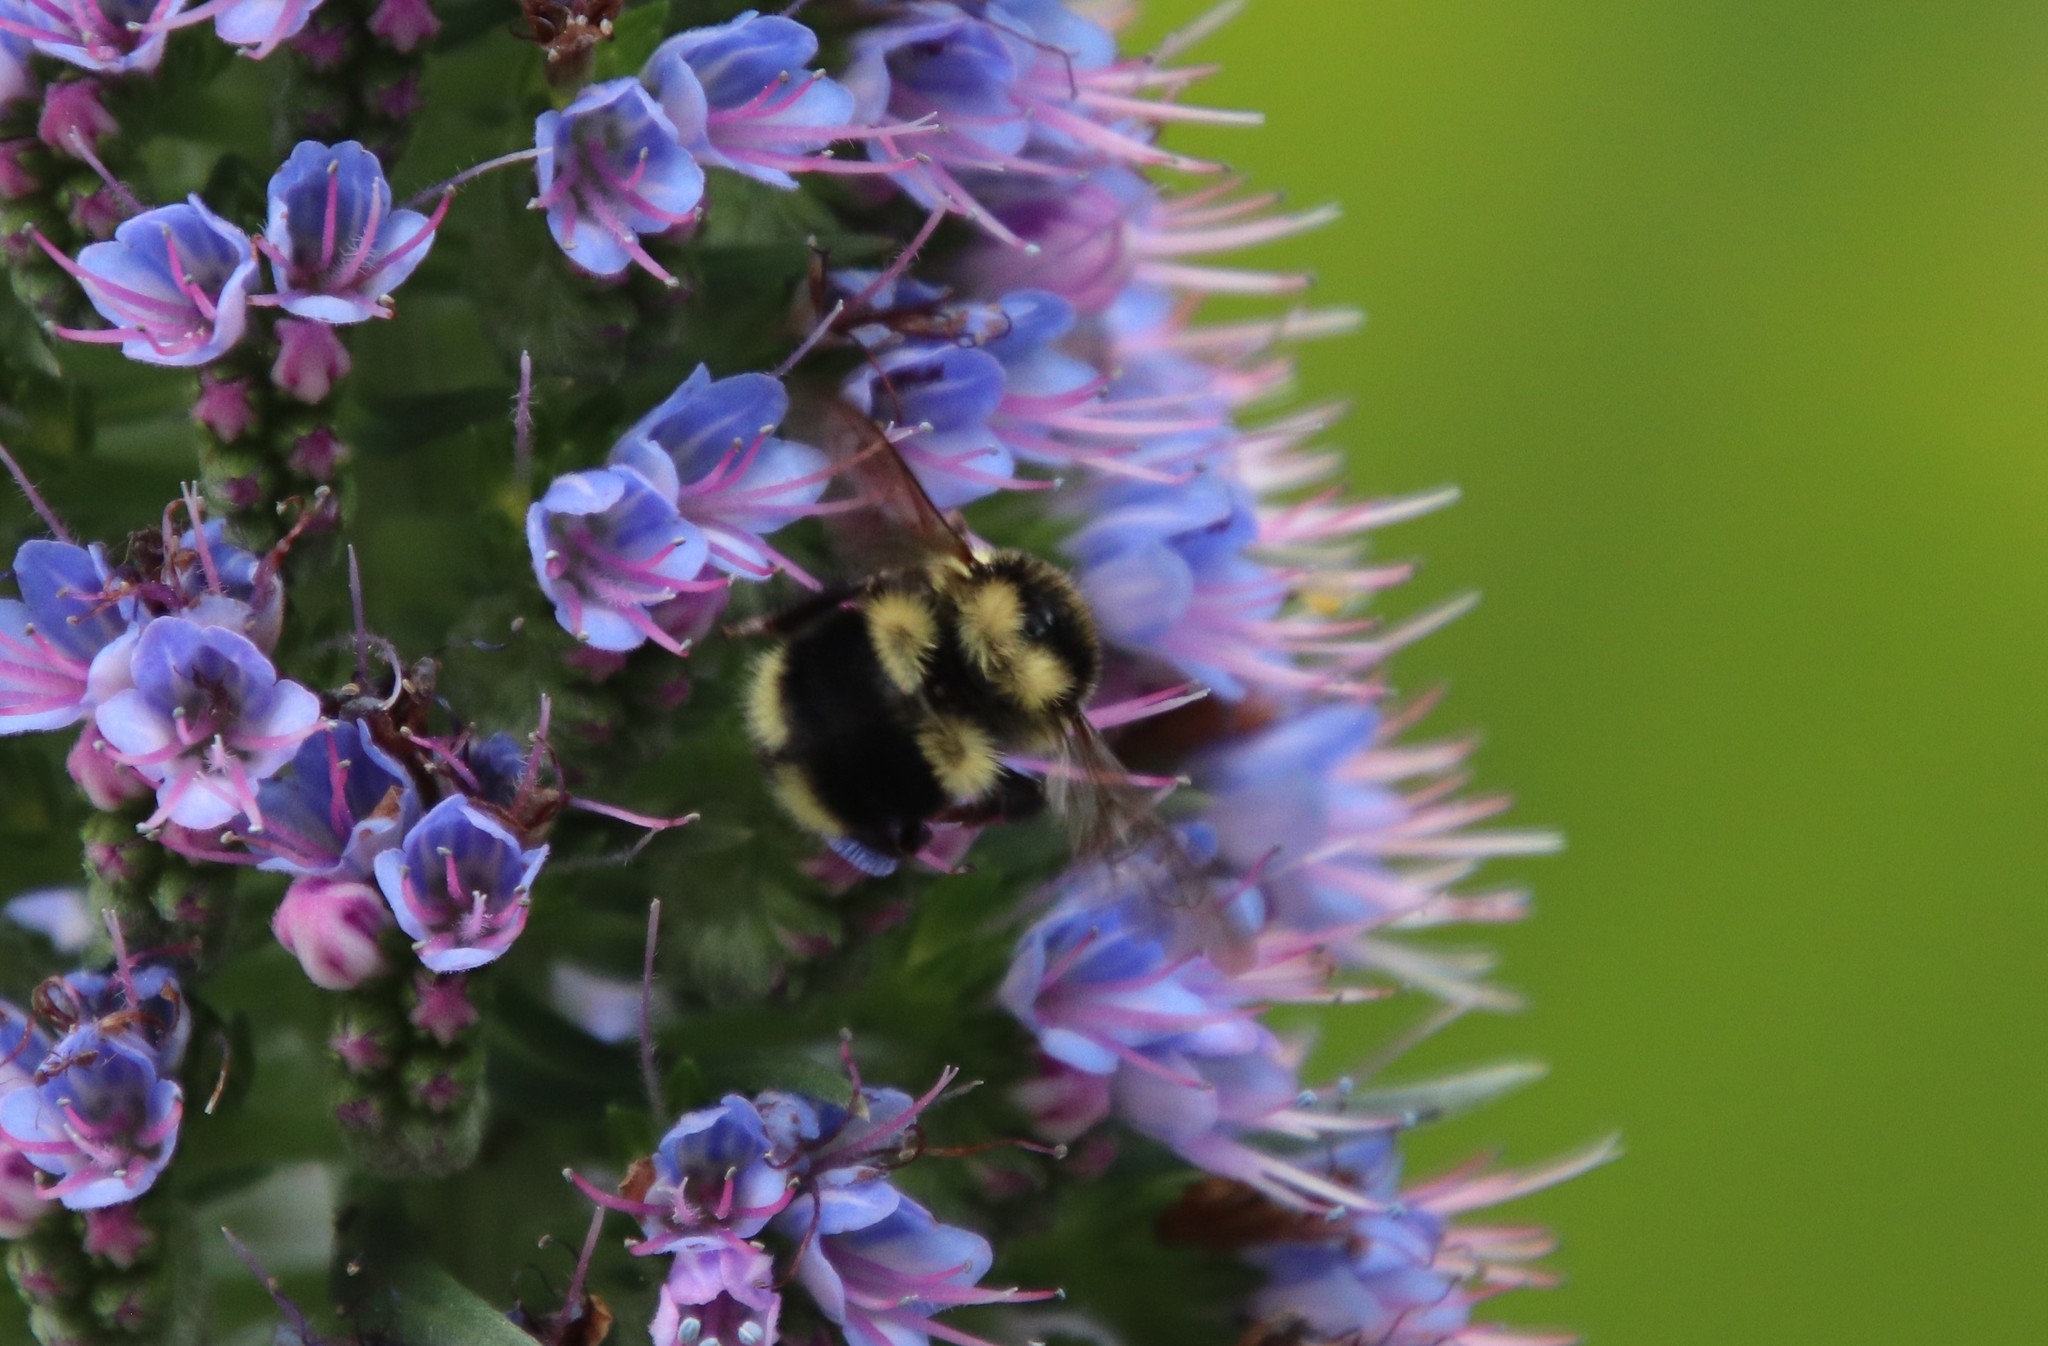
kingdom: Animalia
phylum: Arthropoda
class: Insecta
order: Hymenoptera
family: Apidae
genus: Bombus
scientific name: Bombus melanopygus
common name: Black tail bumble bee
